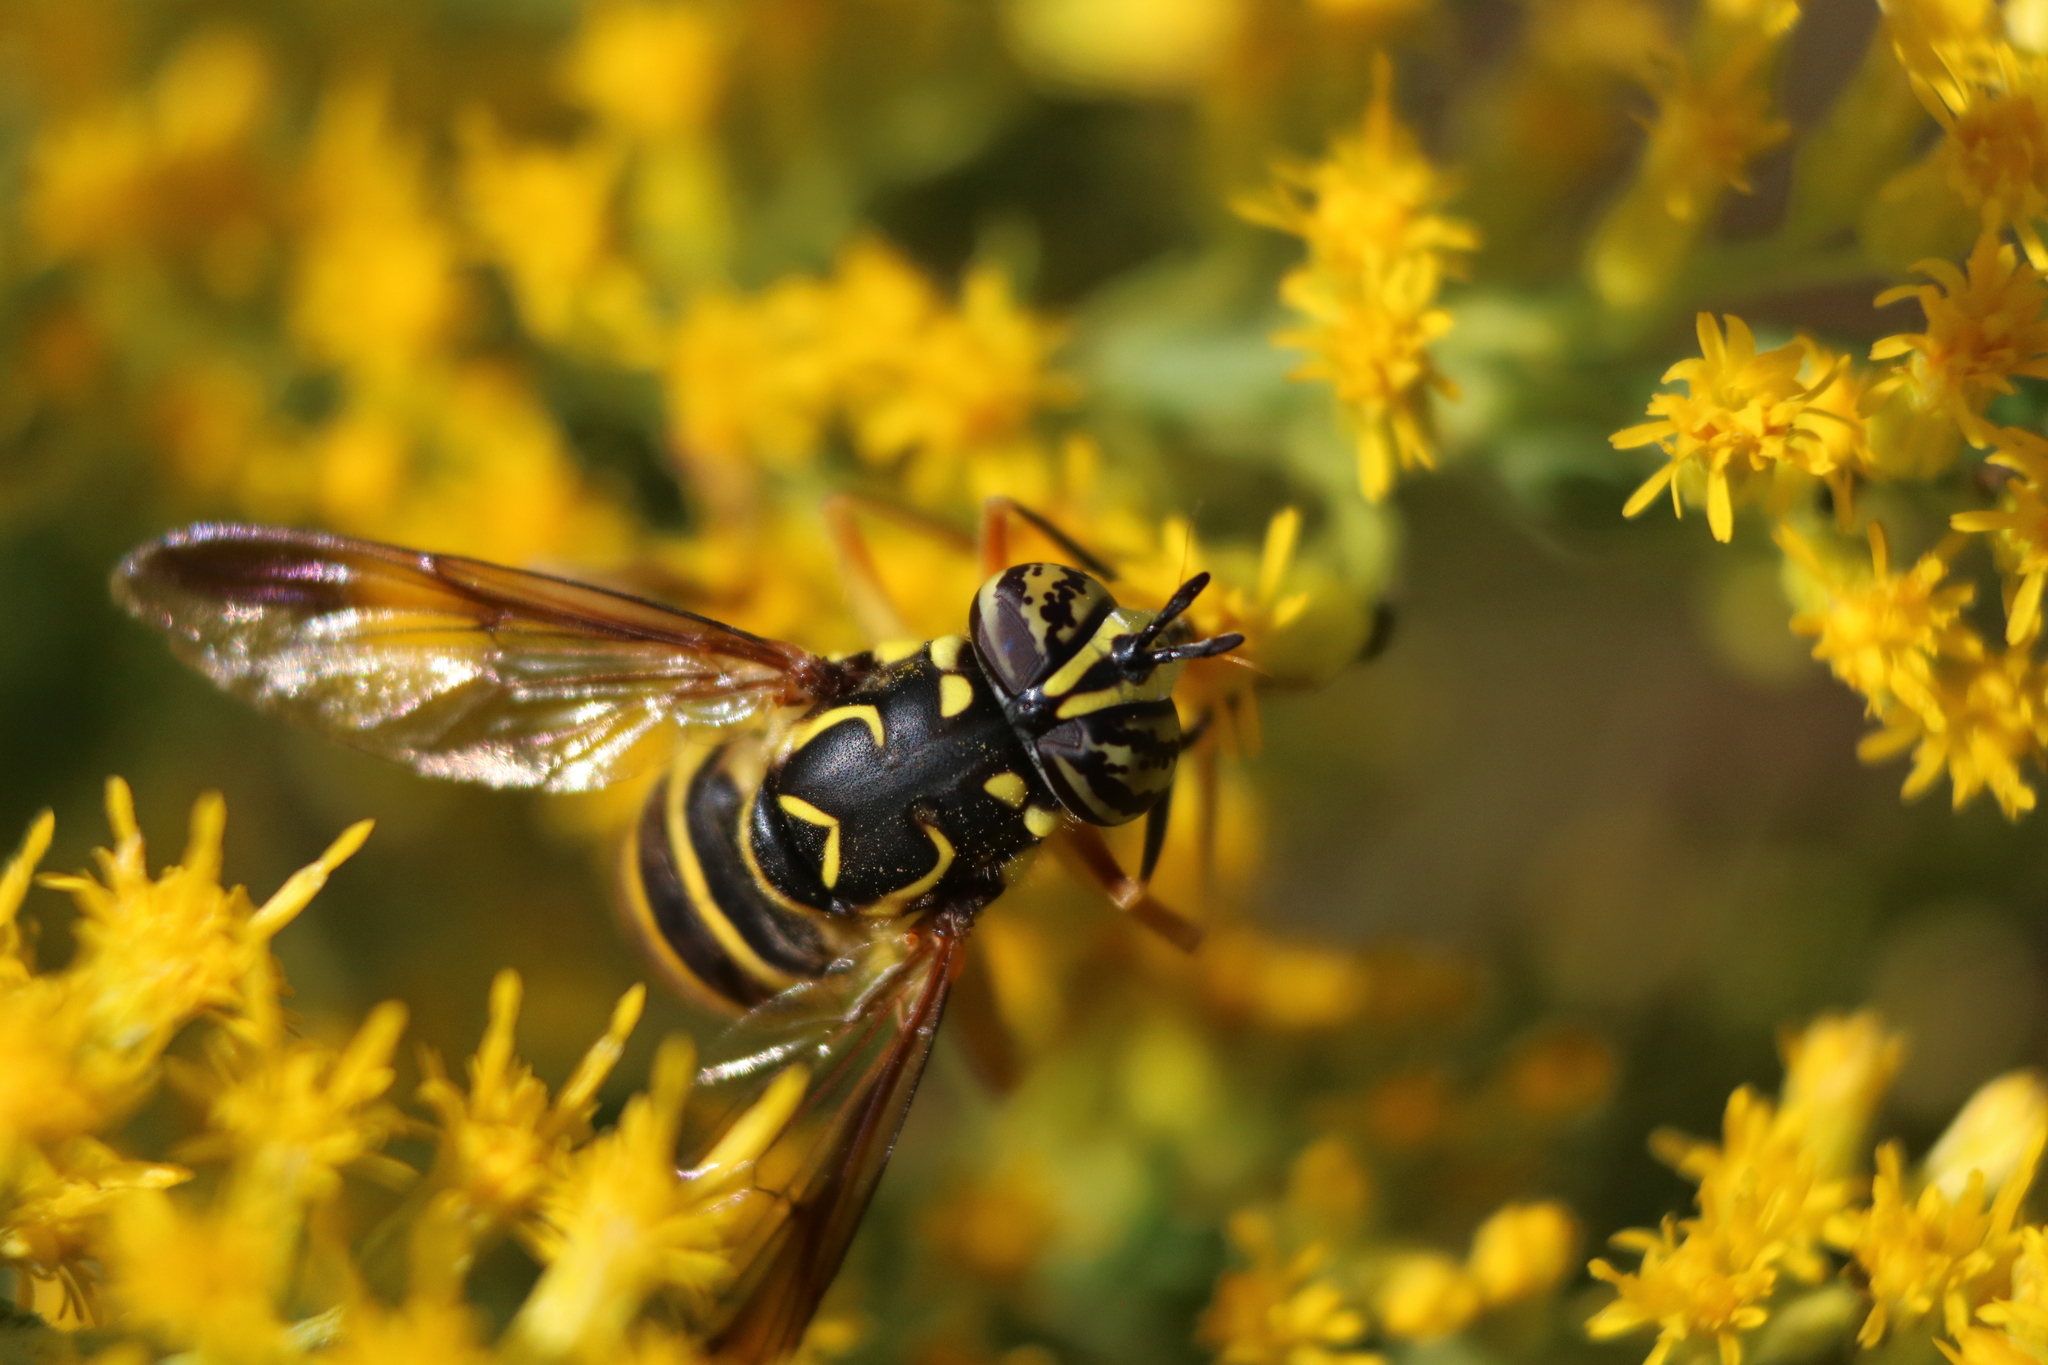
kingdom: Animalia
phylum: Arthropoda
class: Insecta
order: Diptera
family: Syrphidae
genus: Spilomyia
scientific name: Spilomyia longicornis
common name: Eastern hornet fly
